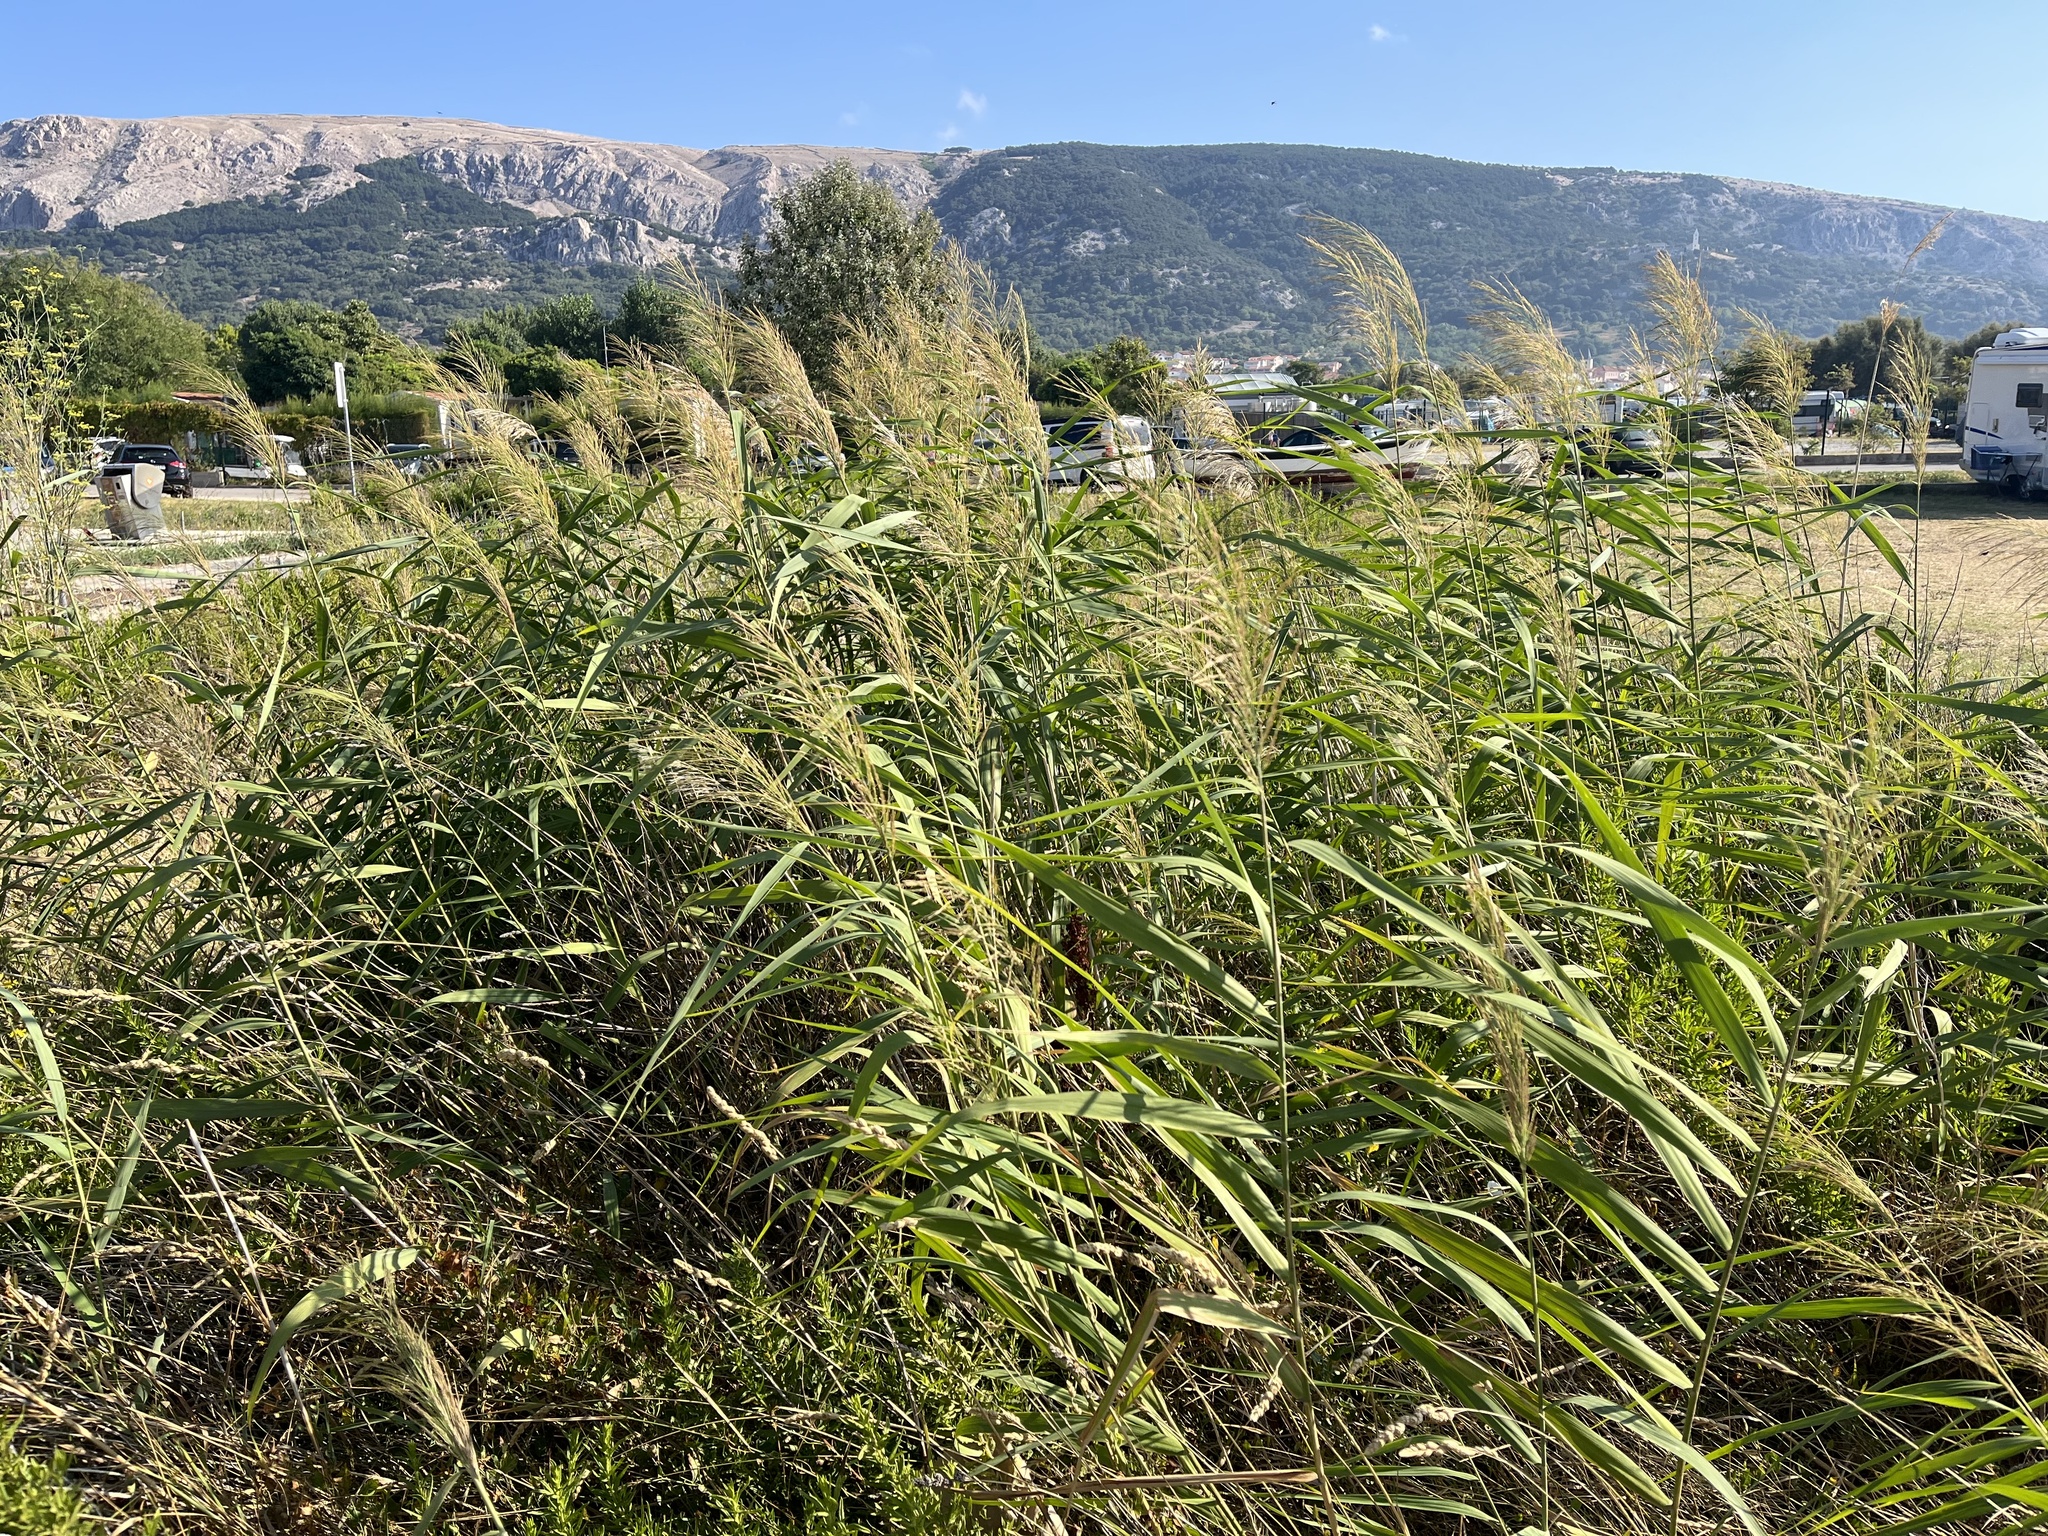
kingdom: Plantae
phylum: Tracheophyta
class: Liliopsida
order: Poales
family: Poaceae
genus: Phragmites
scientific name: Phragmites australis
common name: Common reed
